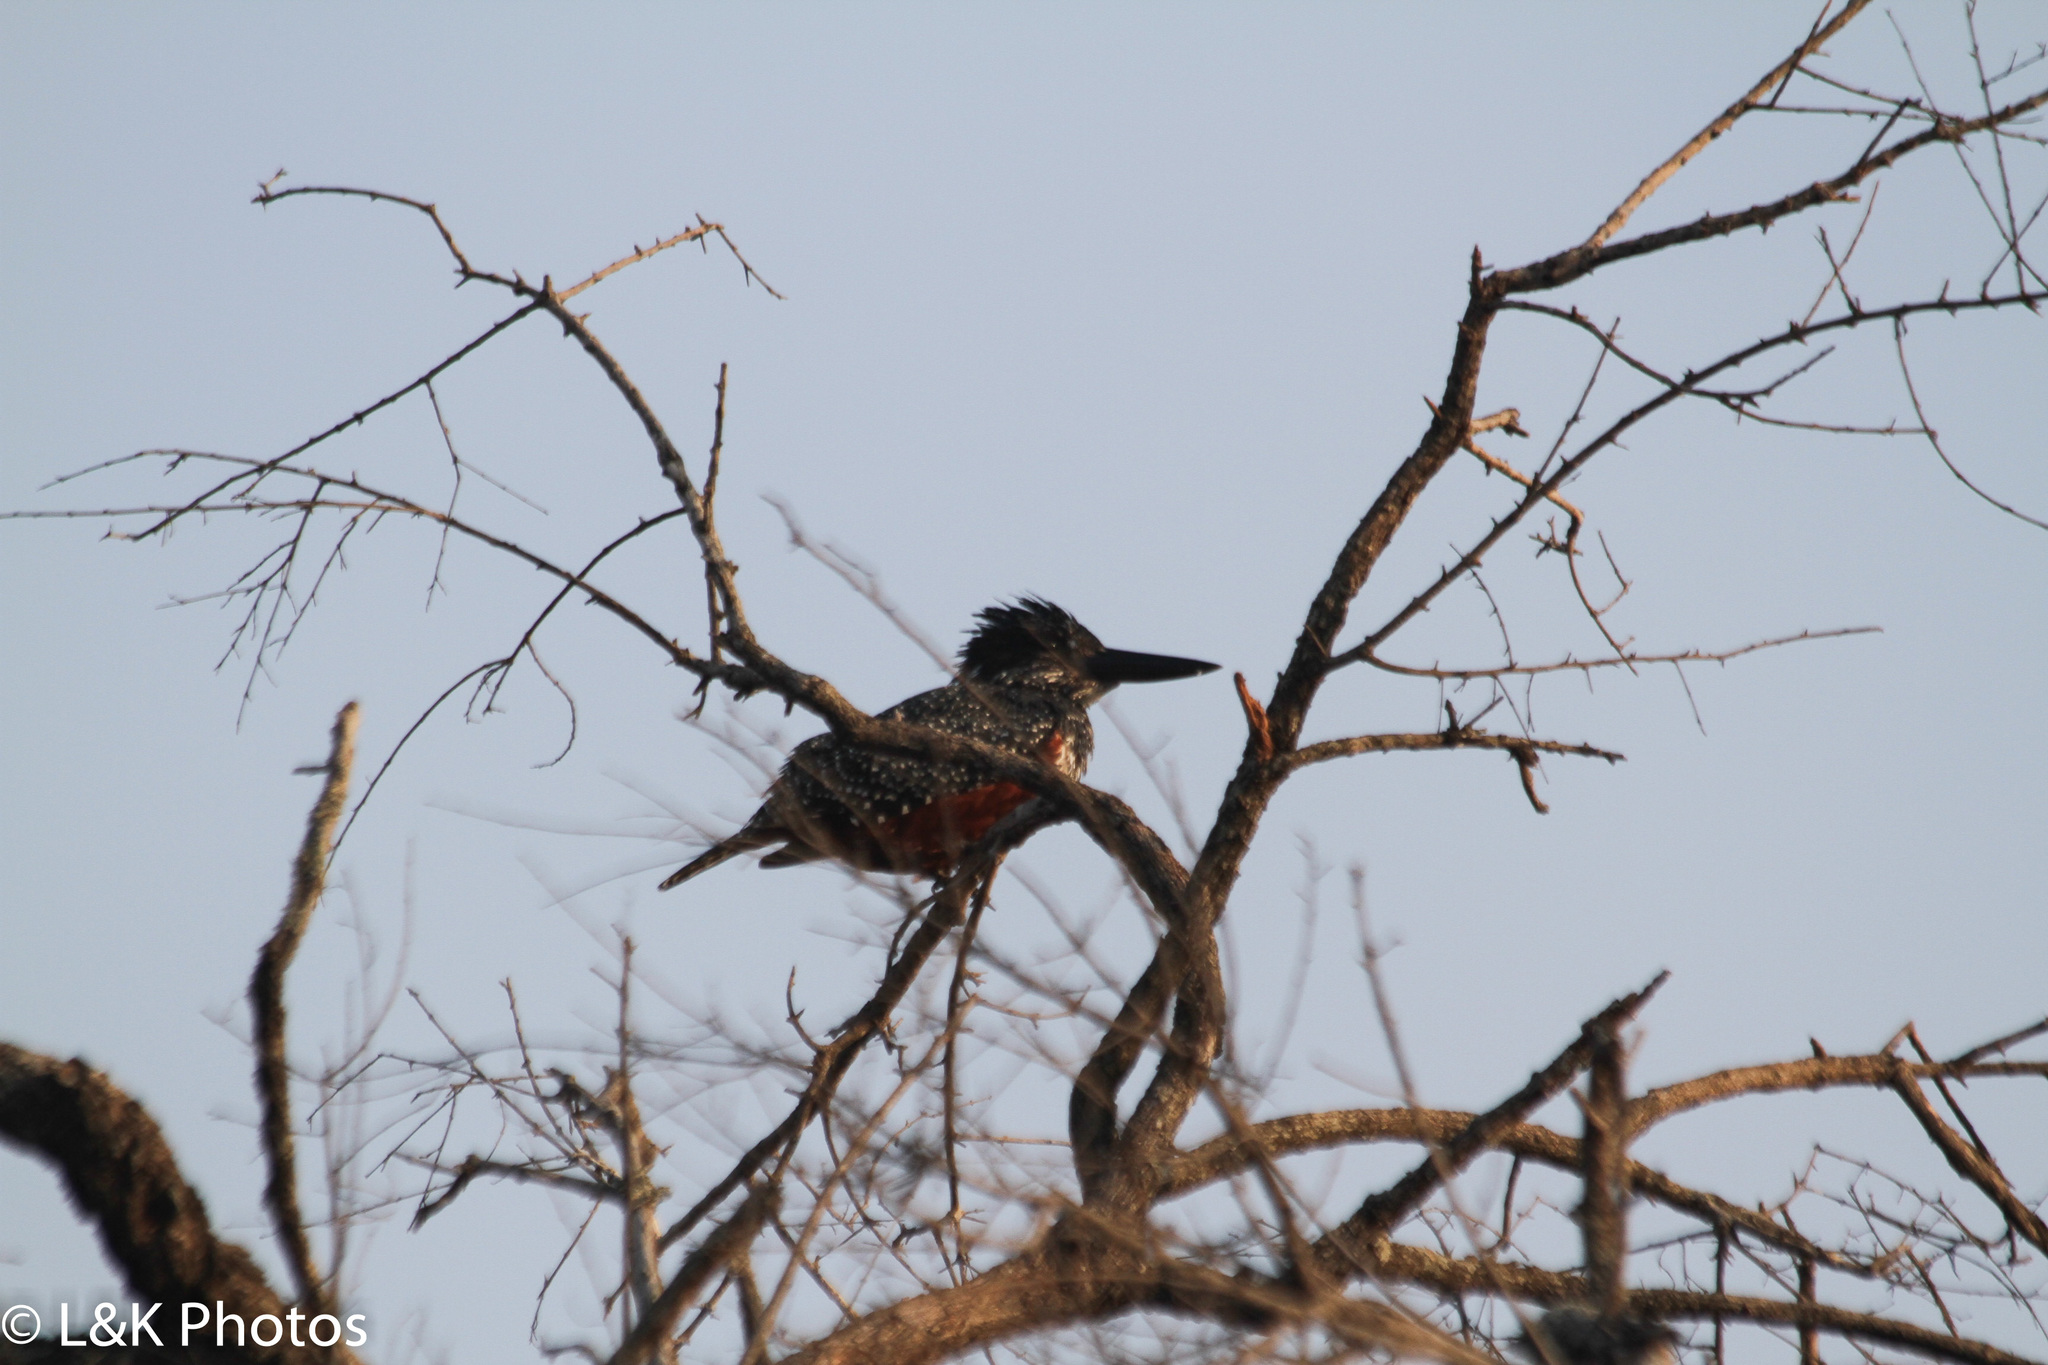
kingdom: Animalia
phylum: Chordata
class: Aves
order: Coraciiformes
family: Alcedinidae
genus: Megaceryle
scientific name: Megaceryle maxima
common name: Giant kingfisher
